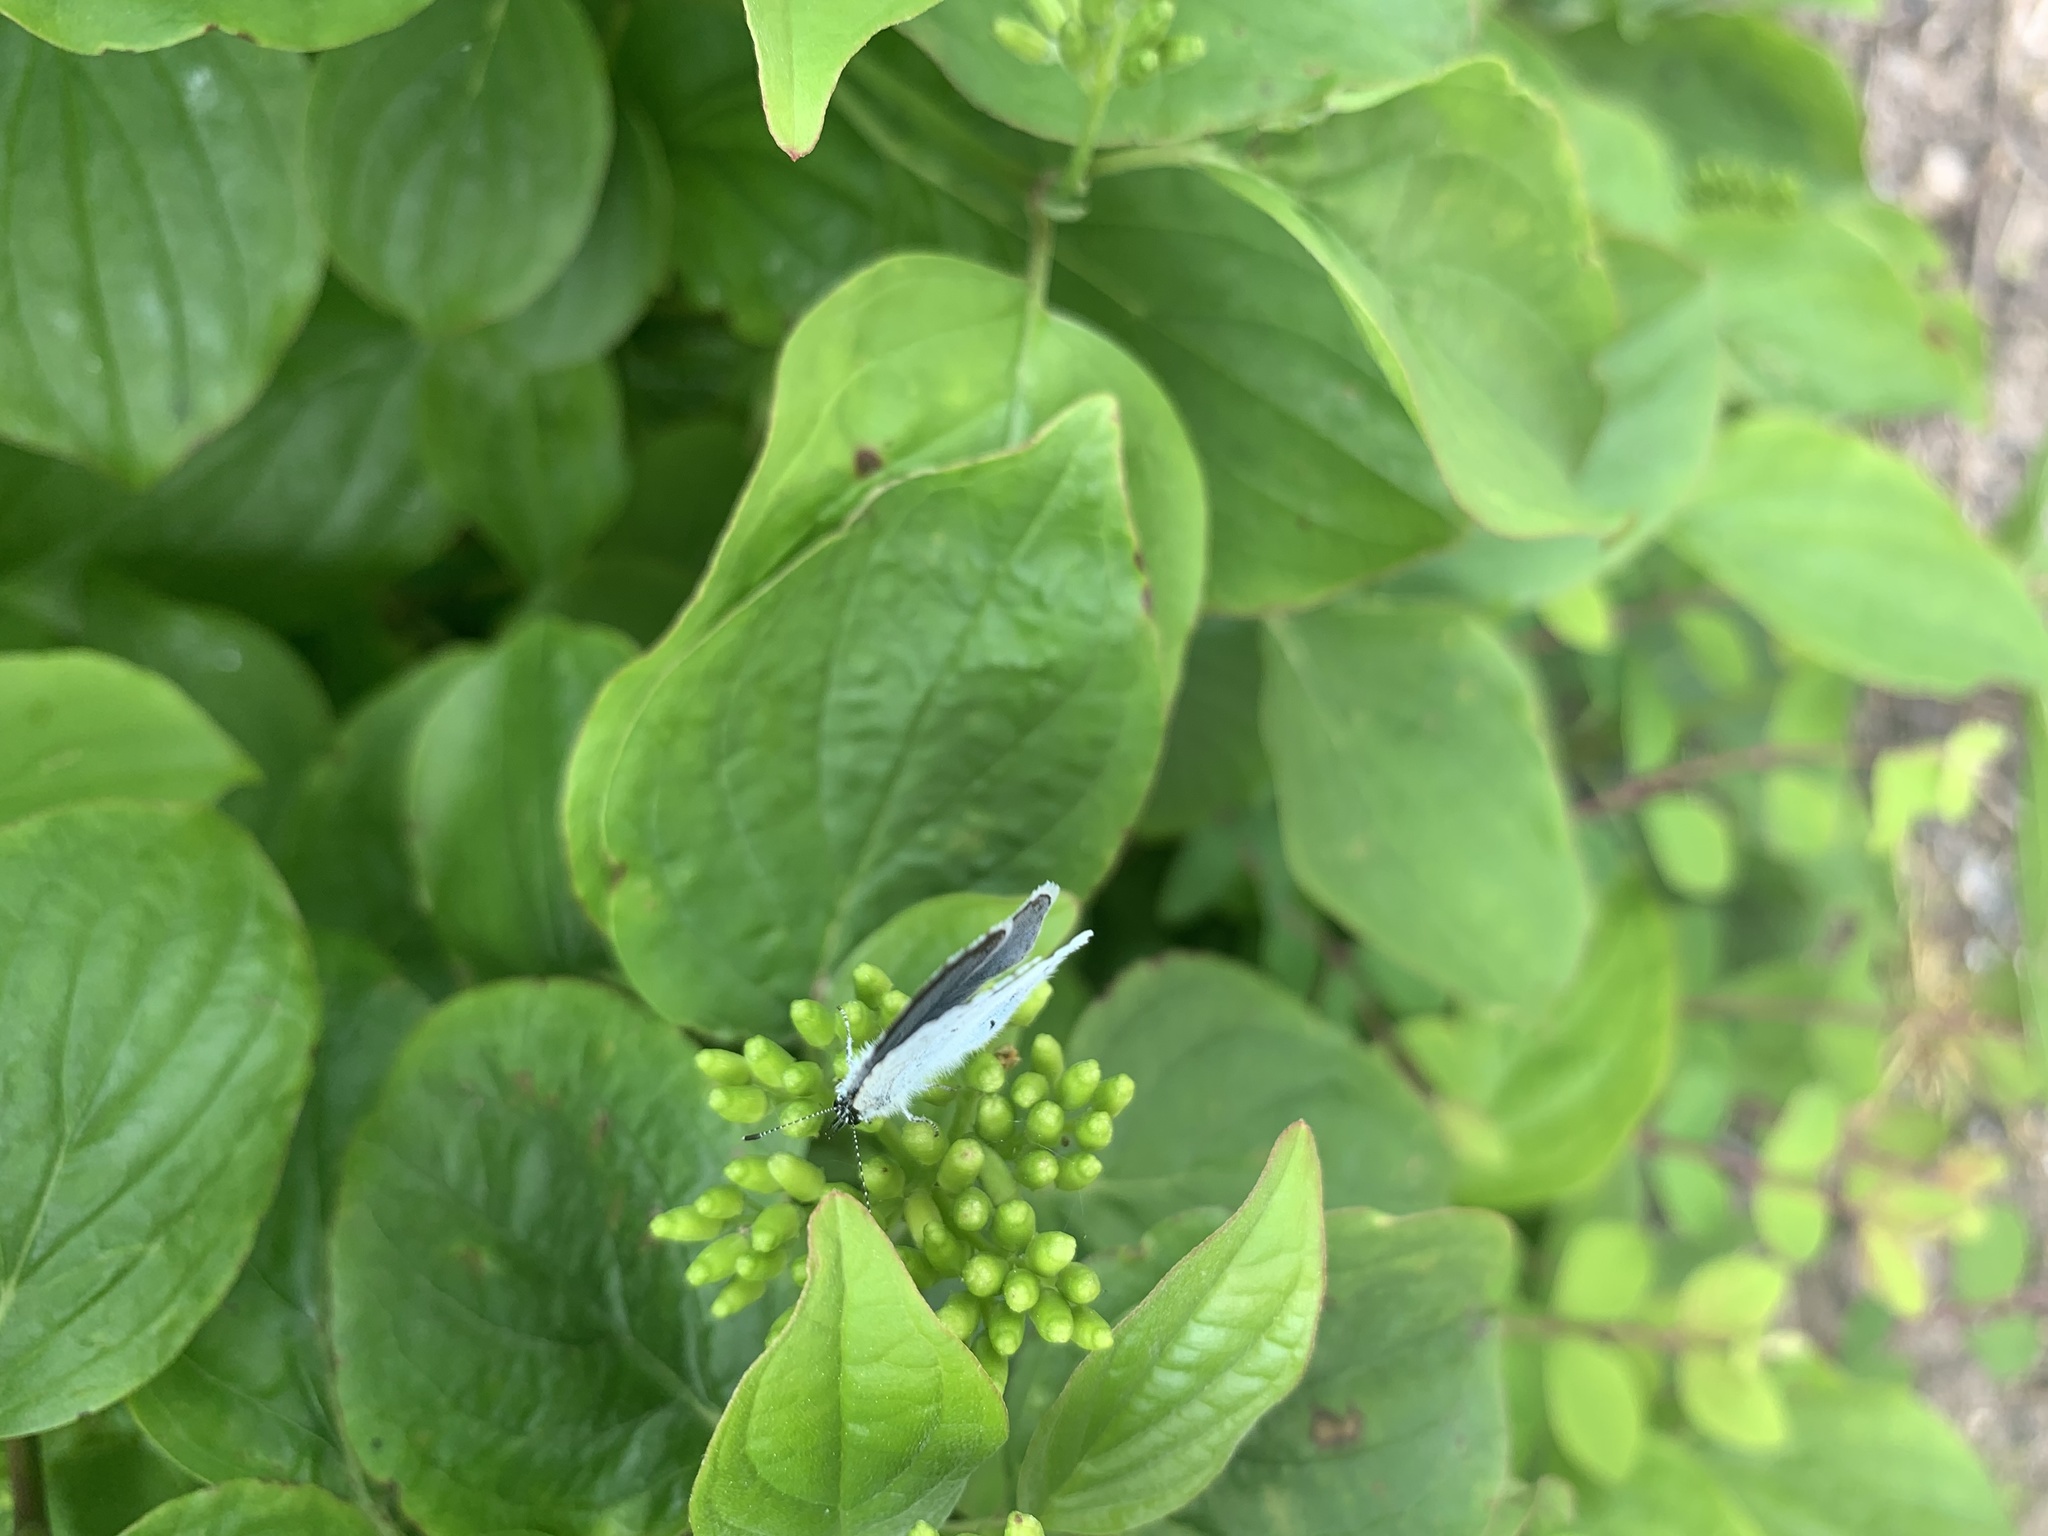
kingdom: Animalia
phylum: Arthropoda
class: Insecta
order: Lepidoptera
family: Lycaenidae
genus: Celastrina
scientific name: Celastrina argiolus
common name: Holly blue
